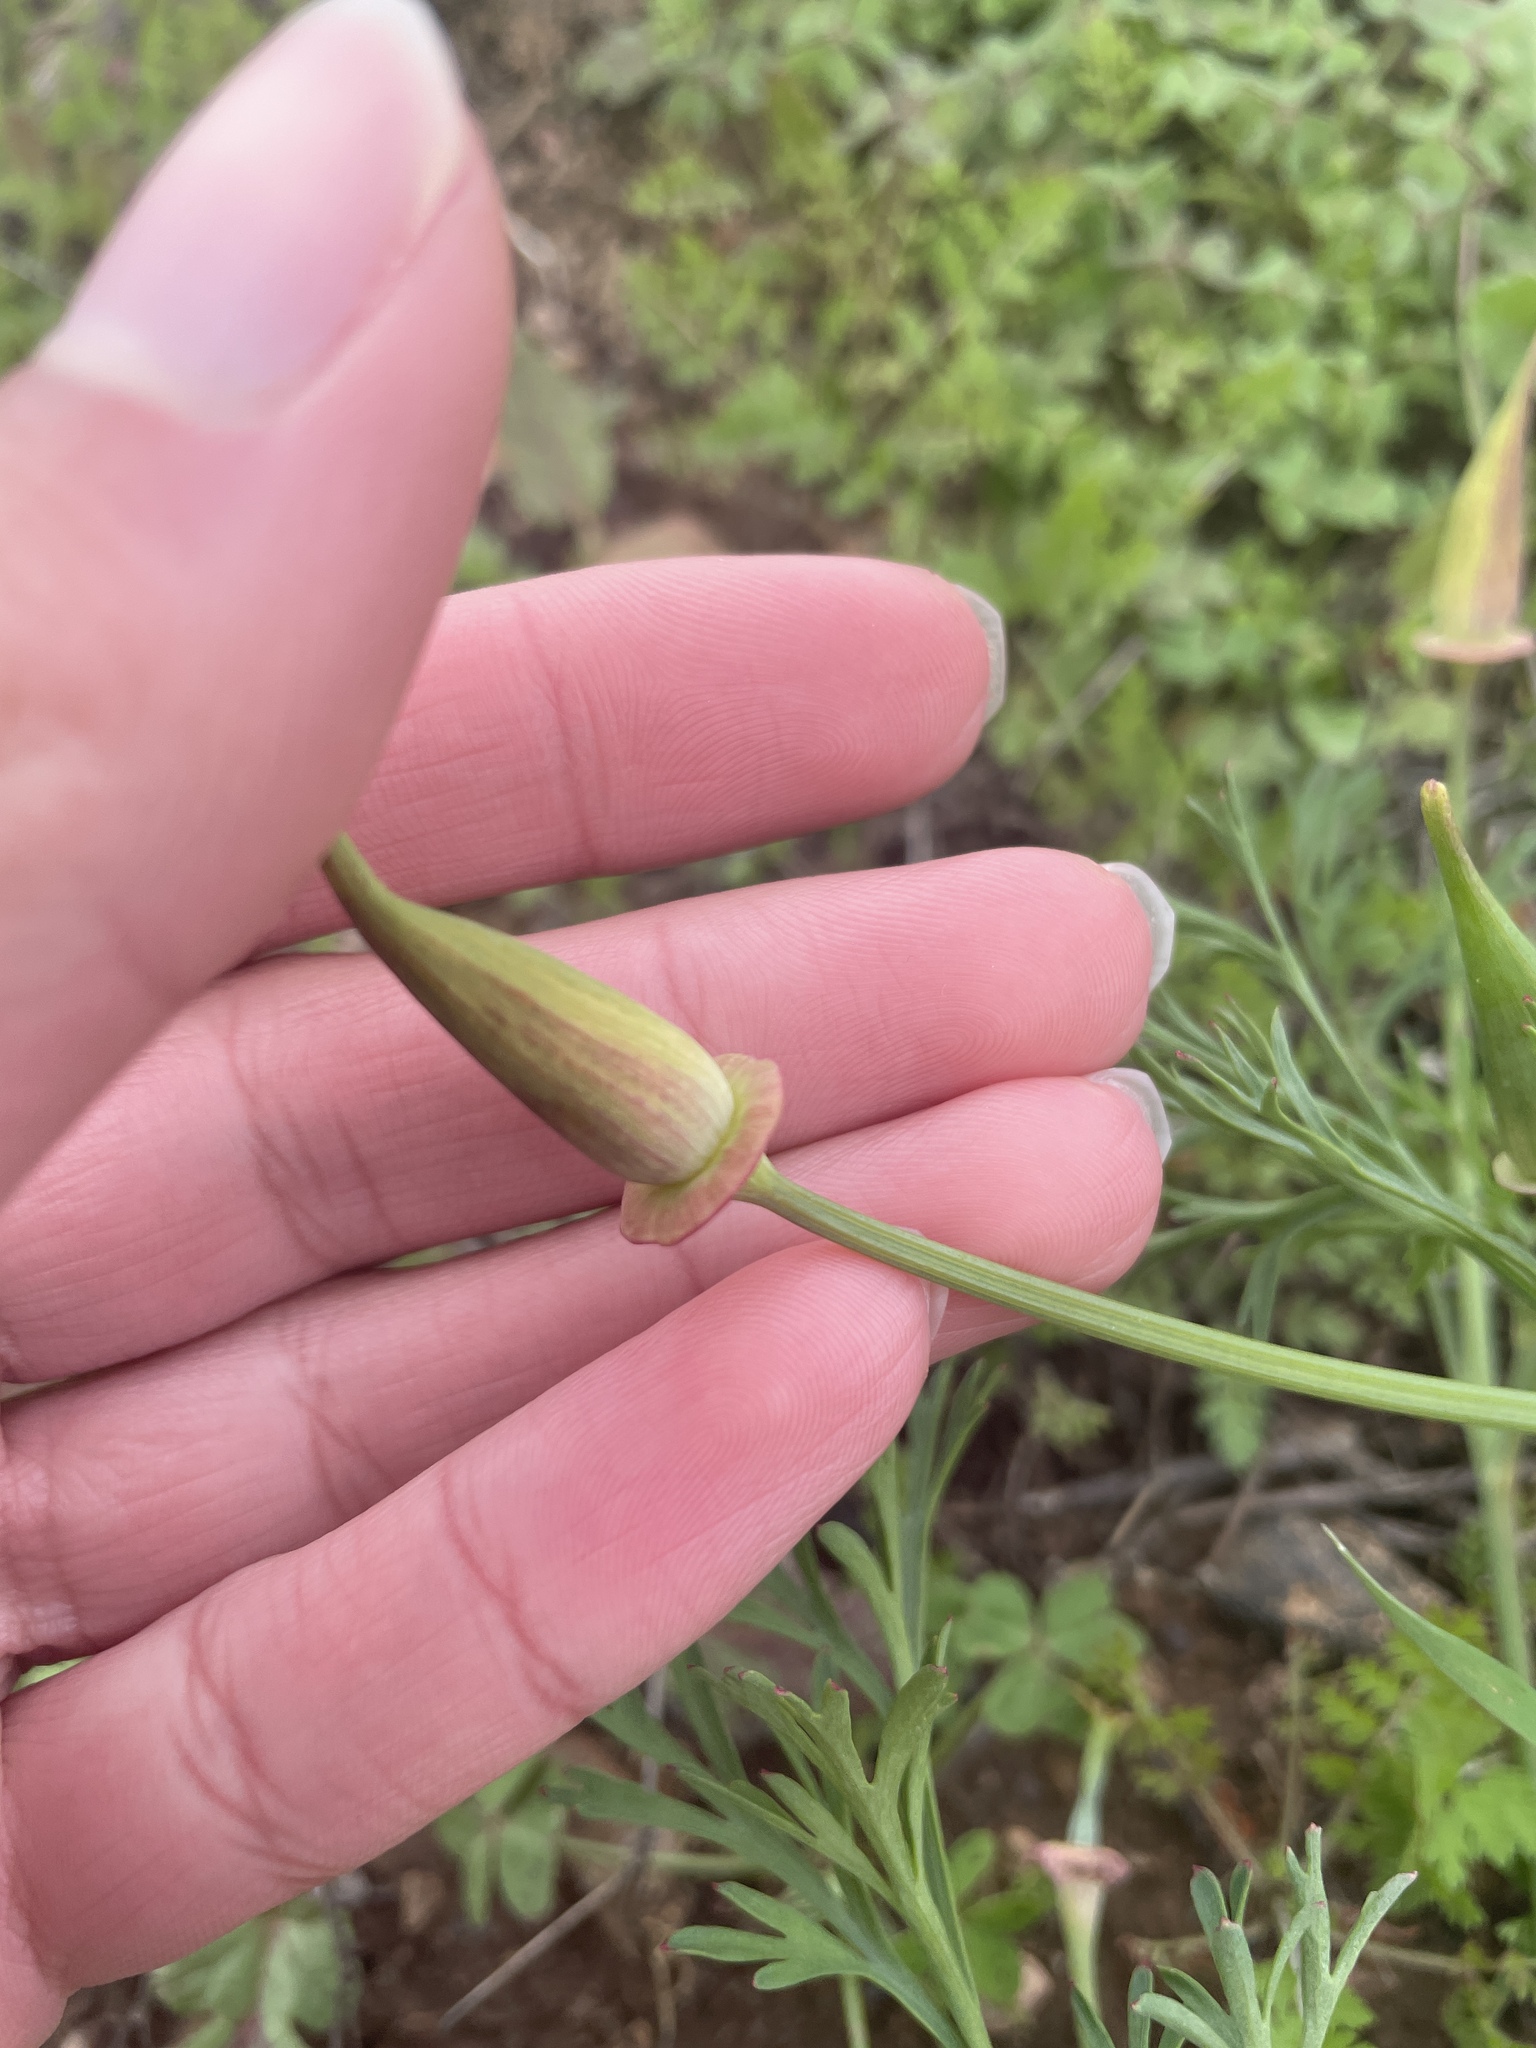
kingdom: Plantae
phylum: Tracheophyta
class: Magnoliopsida
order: Ranunculales
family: Papaveraceae
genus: Eschscholzia
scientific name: Eschscholzia californica
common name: California poppy
